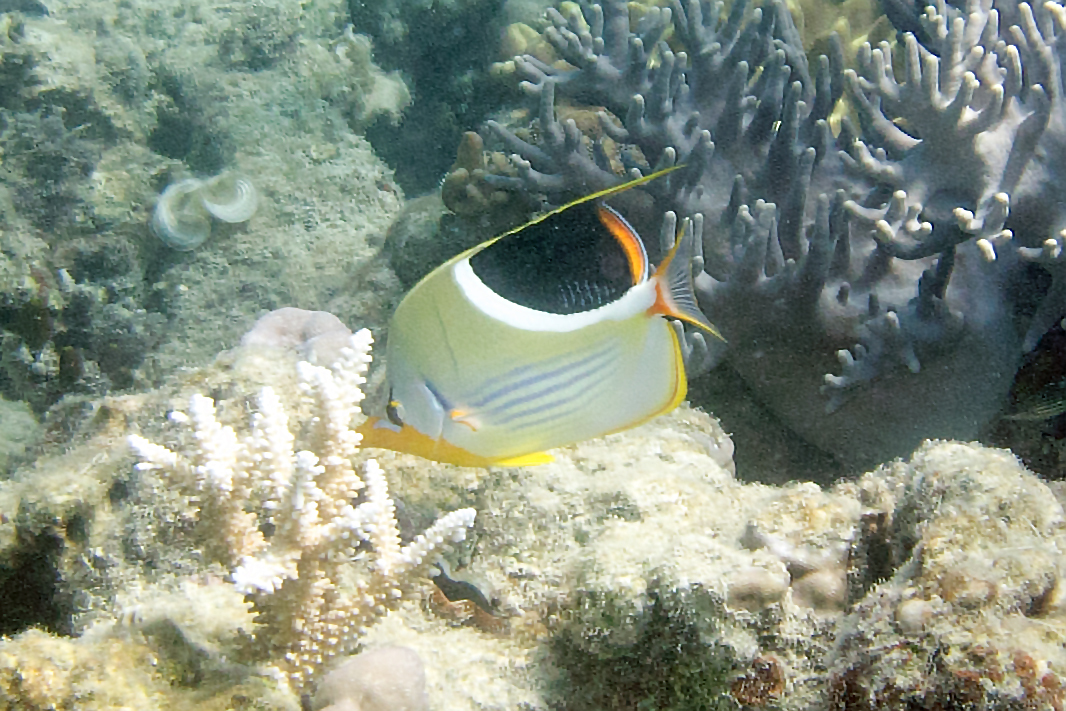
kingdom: Animalia
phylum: Chordata
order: Perciformes
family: Chaetodontidae
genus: Chaetodon
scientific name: Chaetodon ephippium
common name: Saddled butterflyfish
